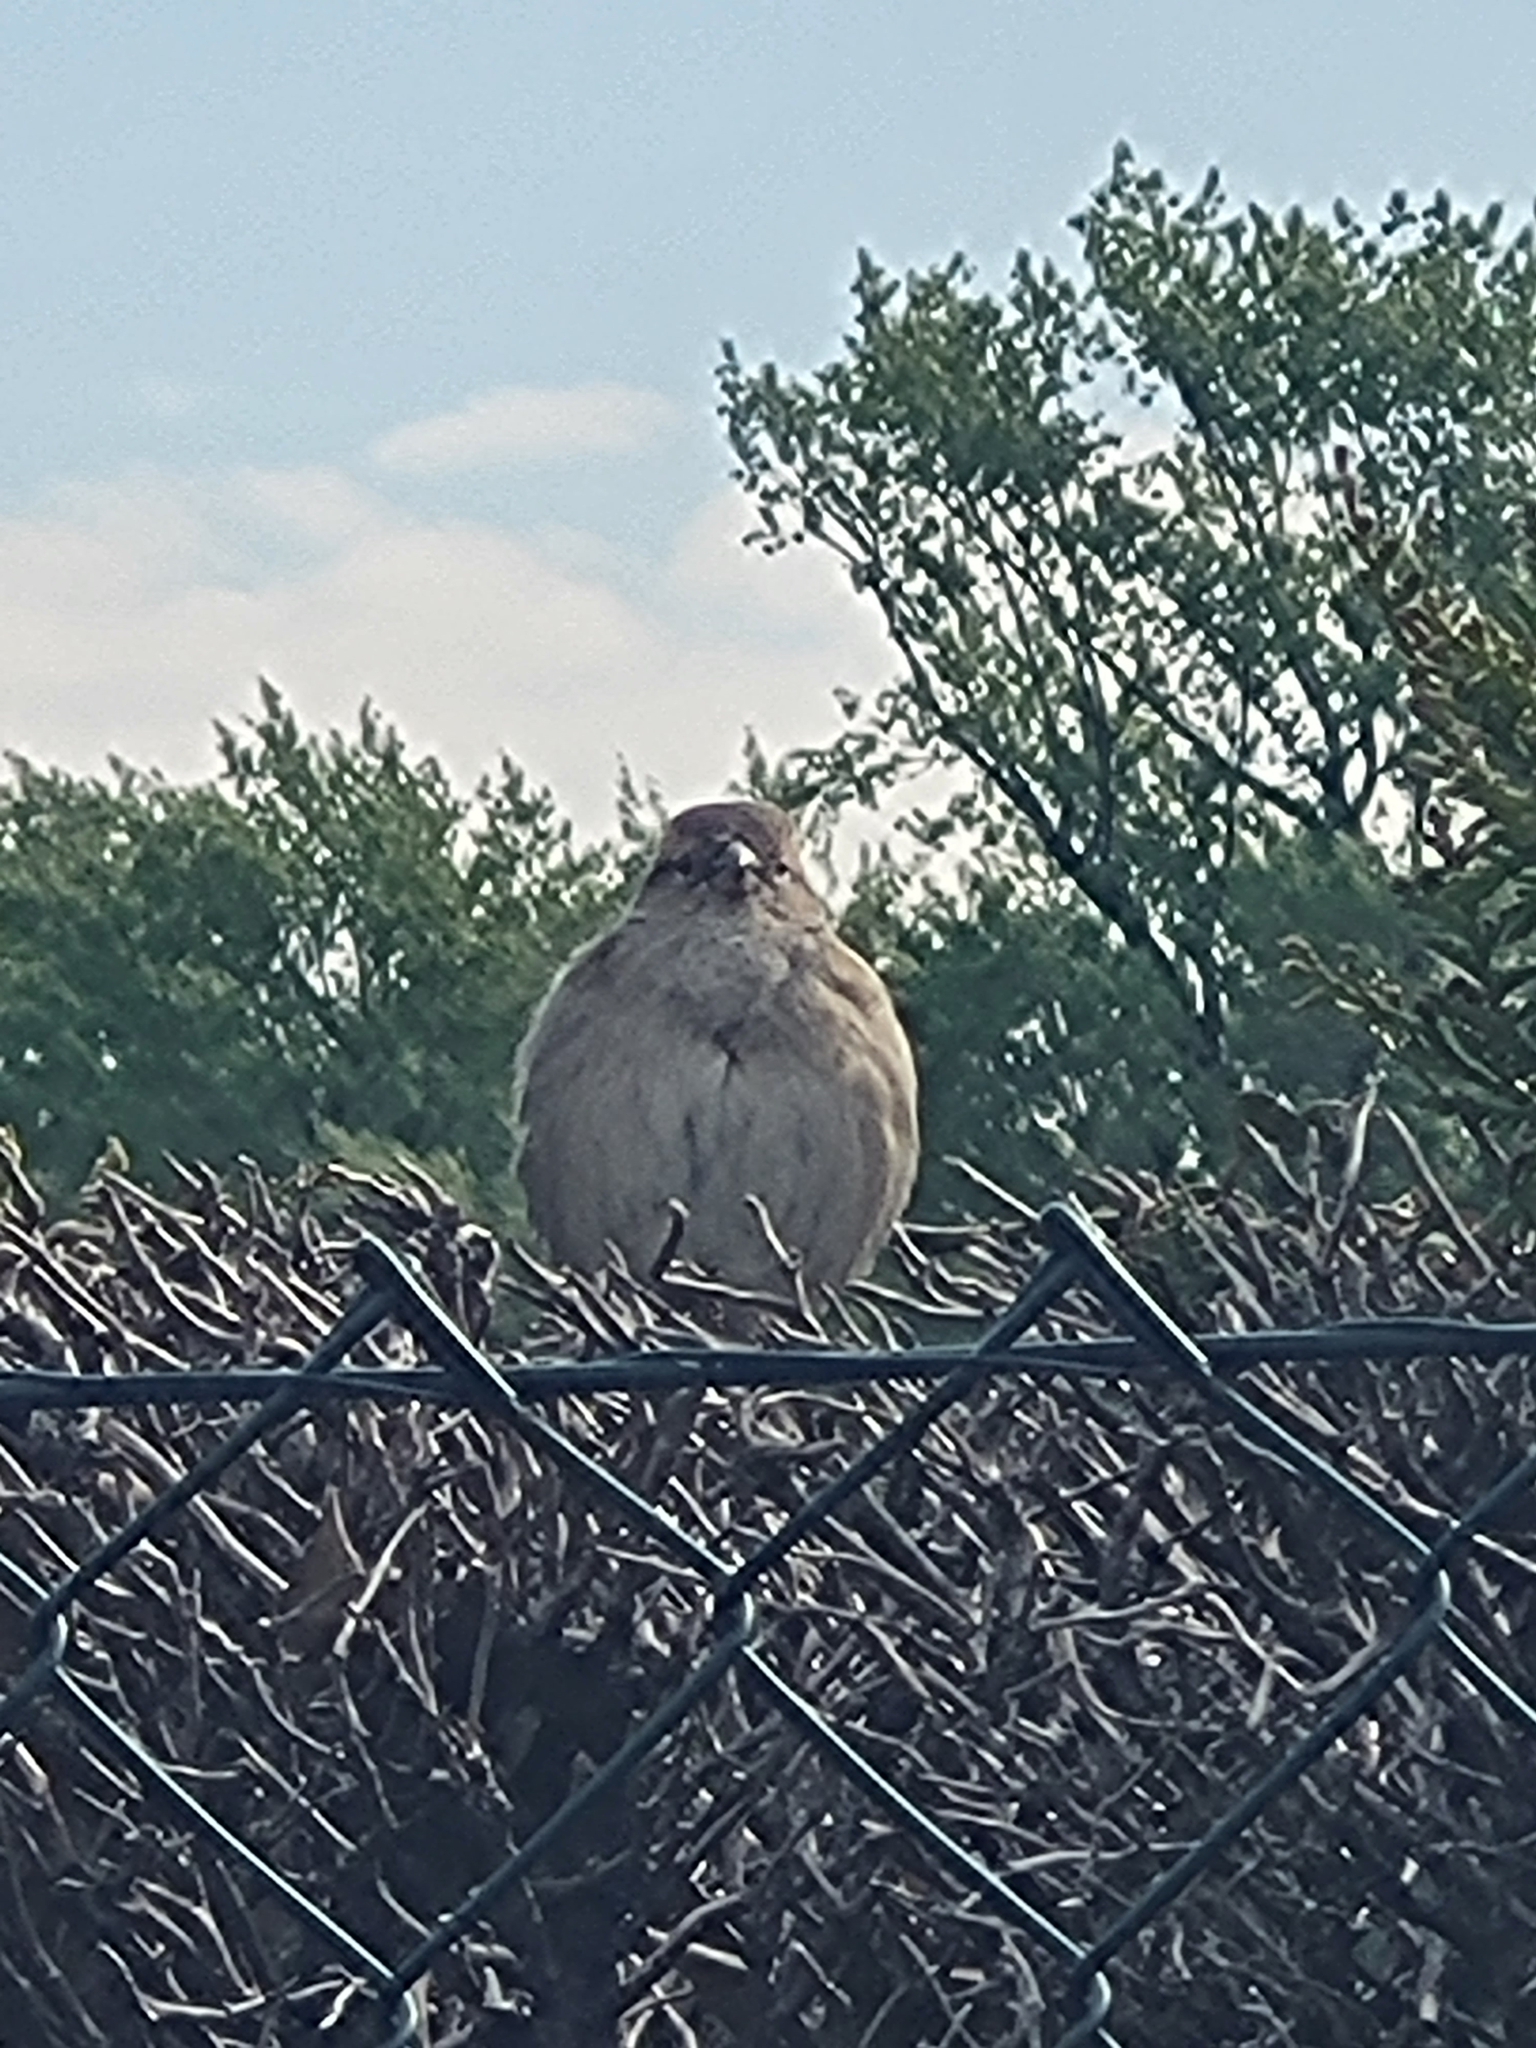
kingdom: Animalia
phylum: Chordata
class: Aves
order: Passeriformes
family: Passeridae
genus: Passer
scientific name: Passer domesticus
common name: House sparrow
